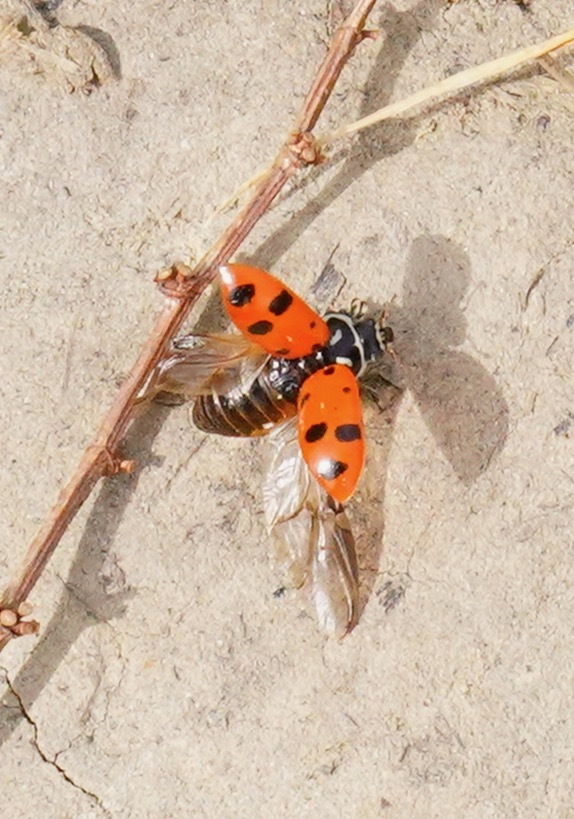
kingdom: Animalia
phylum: Arthropoda
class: Insecta
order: Coleoptera
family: Coccinellidae
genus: Hippodamia
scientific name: Hippodamia convergens
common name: Convergent lady beetle
